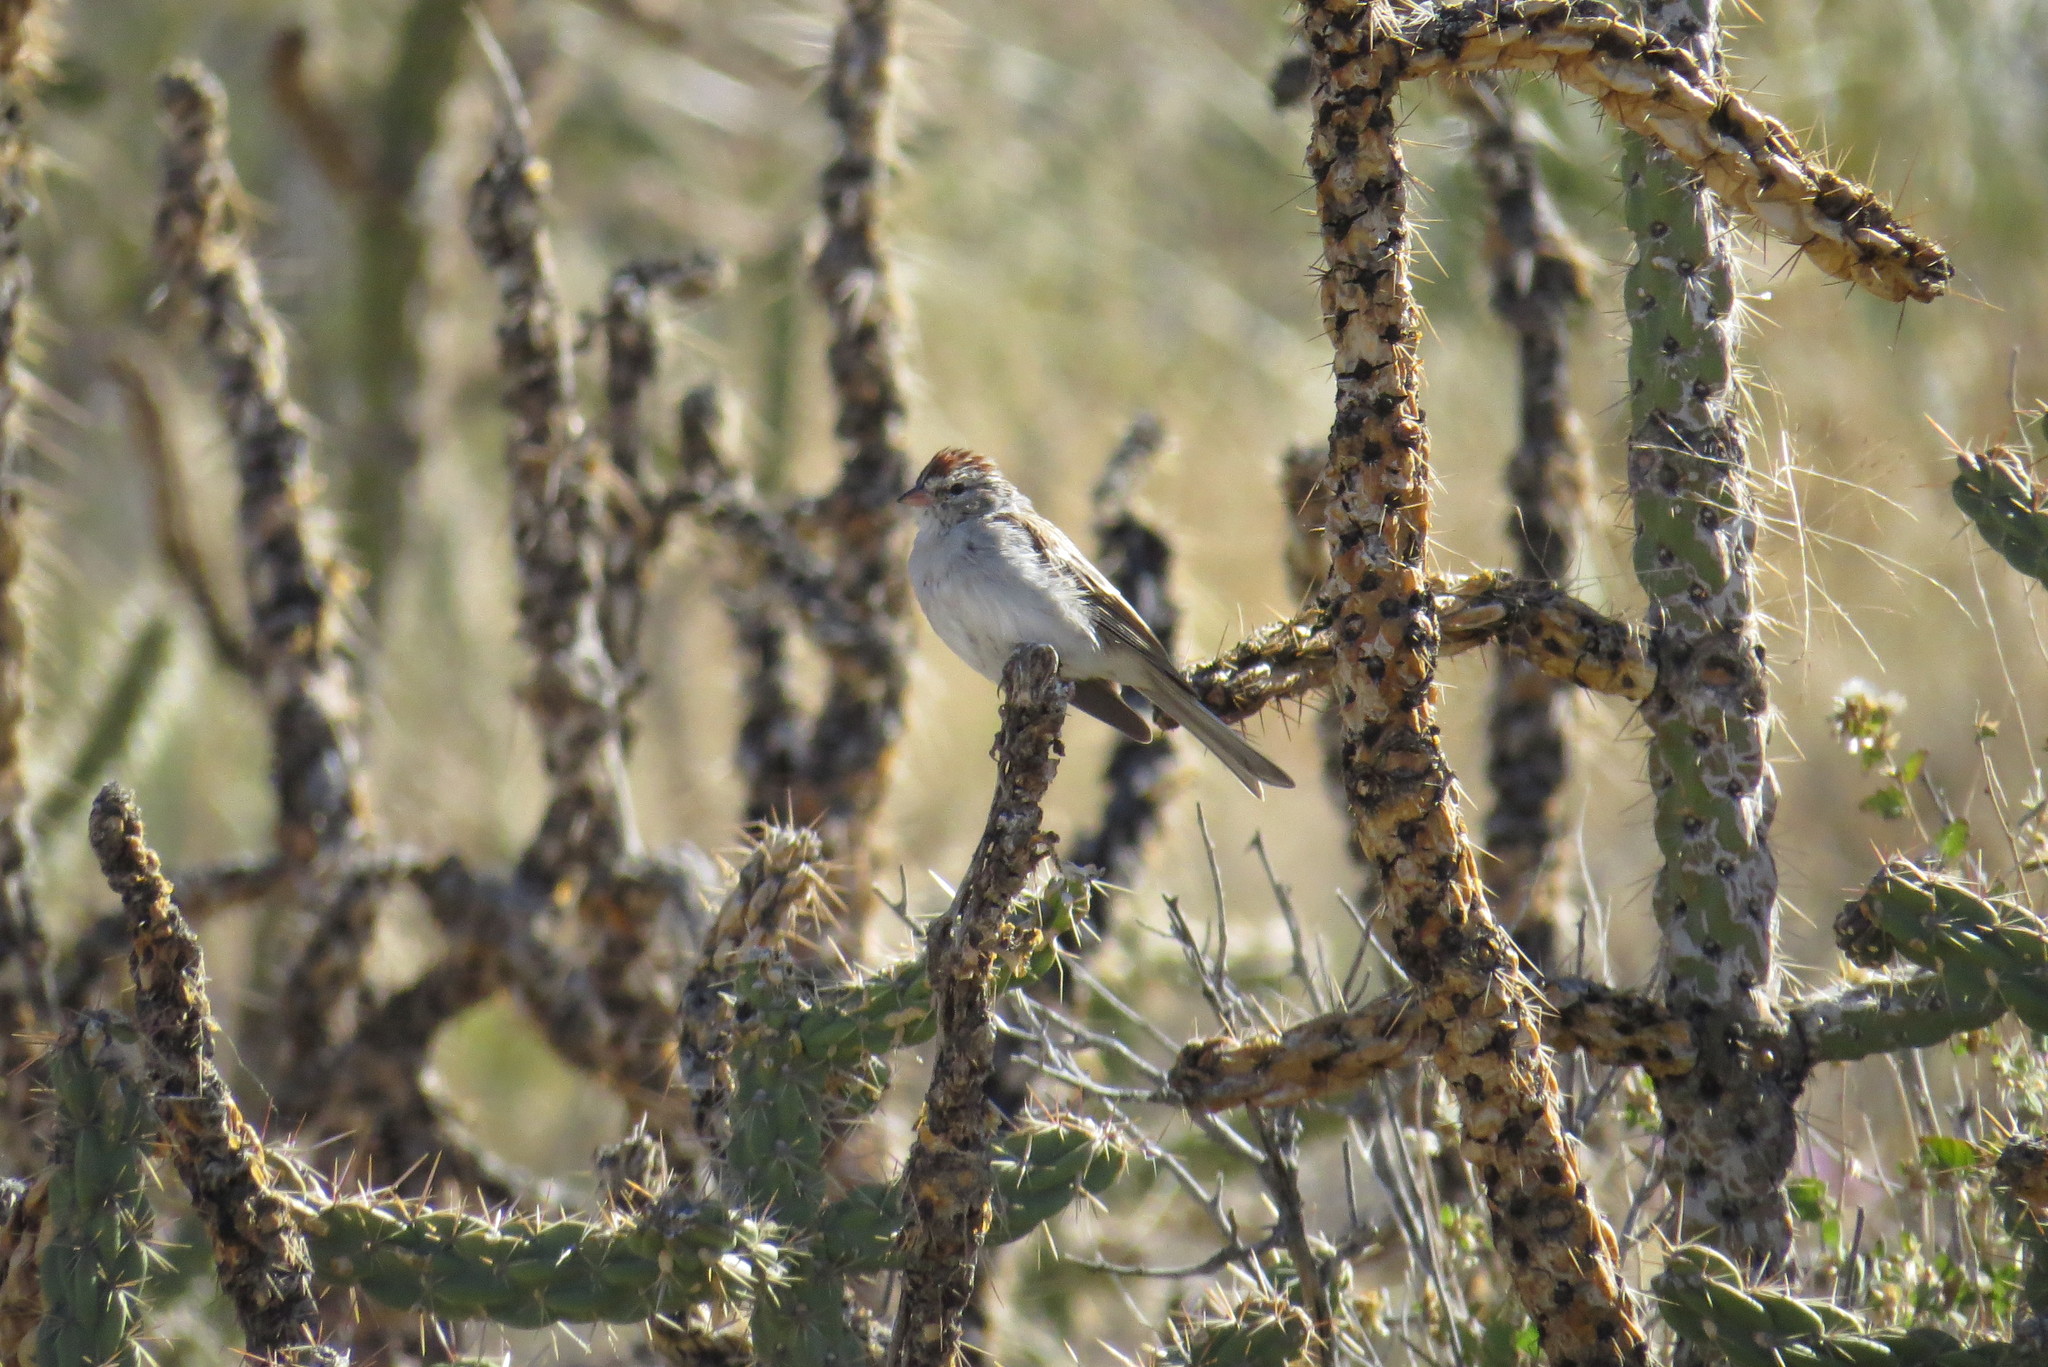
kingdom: Animalia
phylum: Chordata
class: Aves
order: Passeriformes
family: Passerellidae
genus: Spizella
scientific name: Spizella passerina
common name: Chipping sparrow
